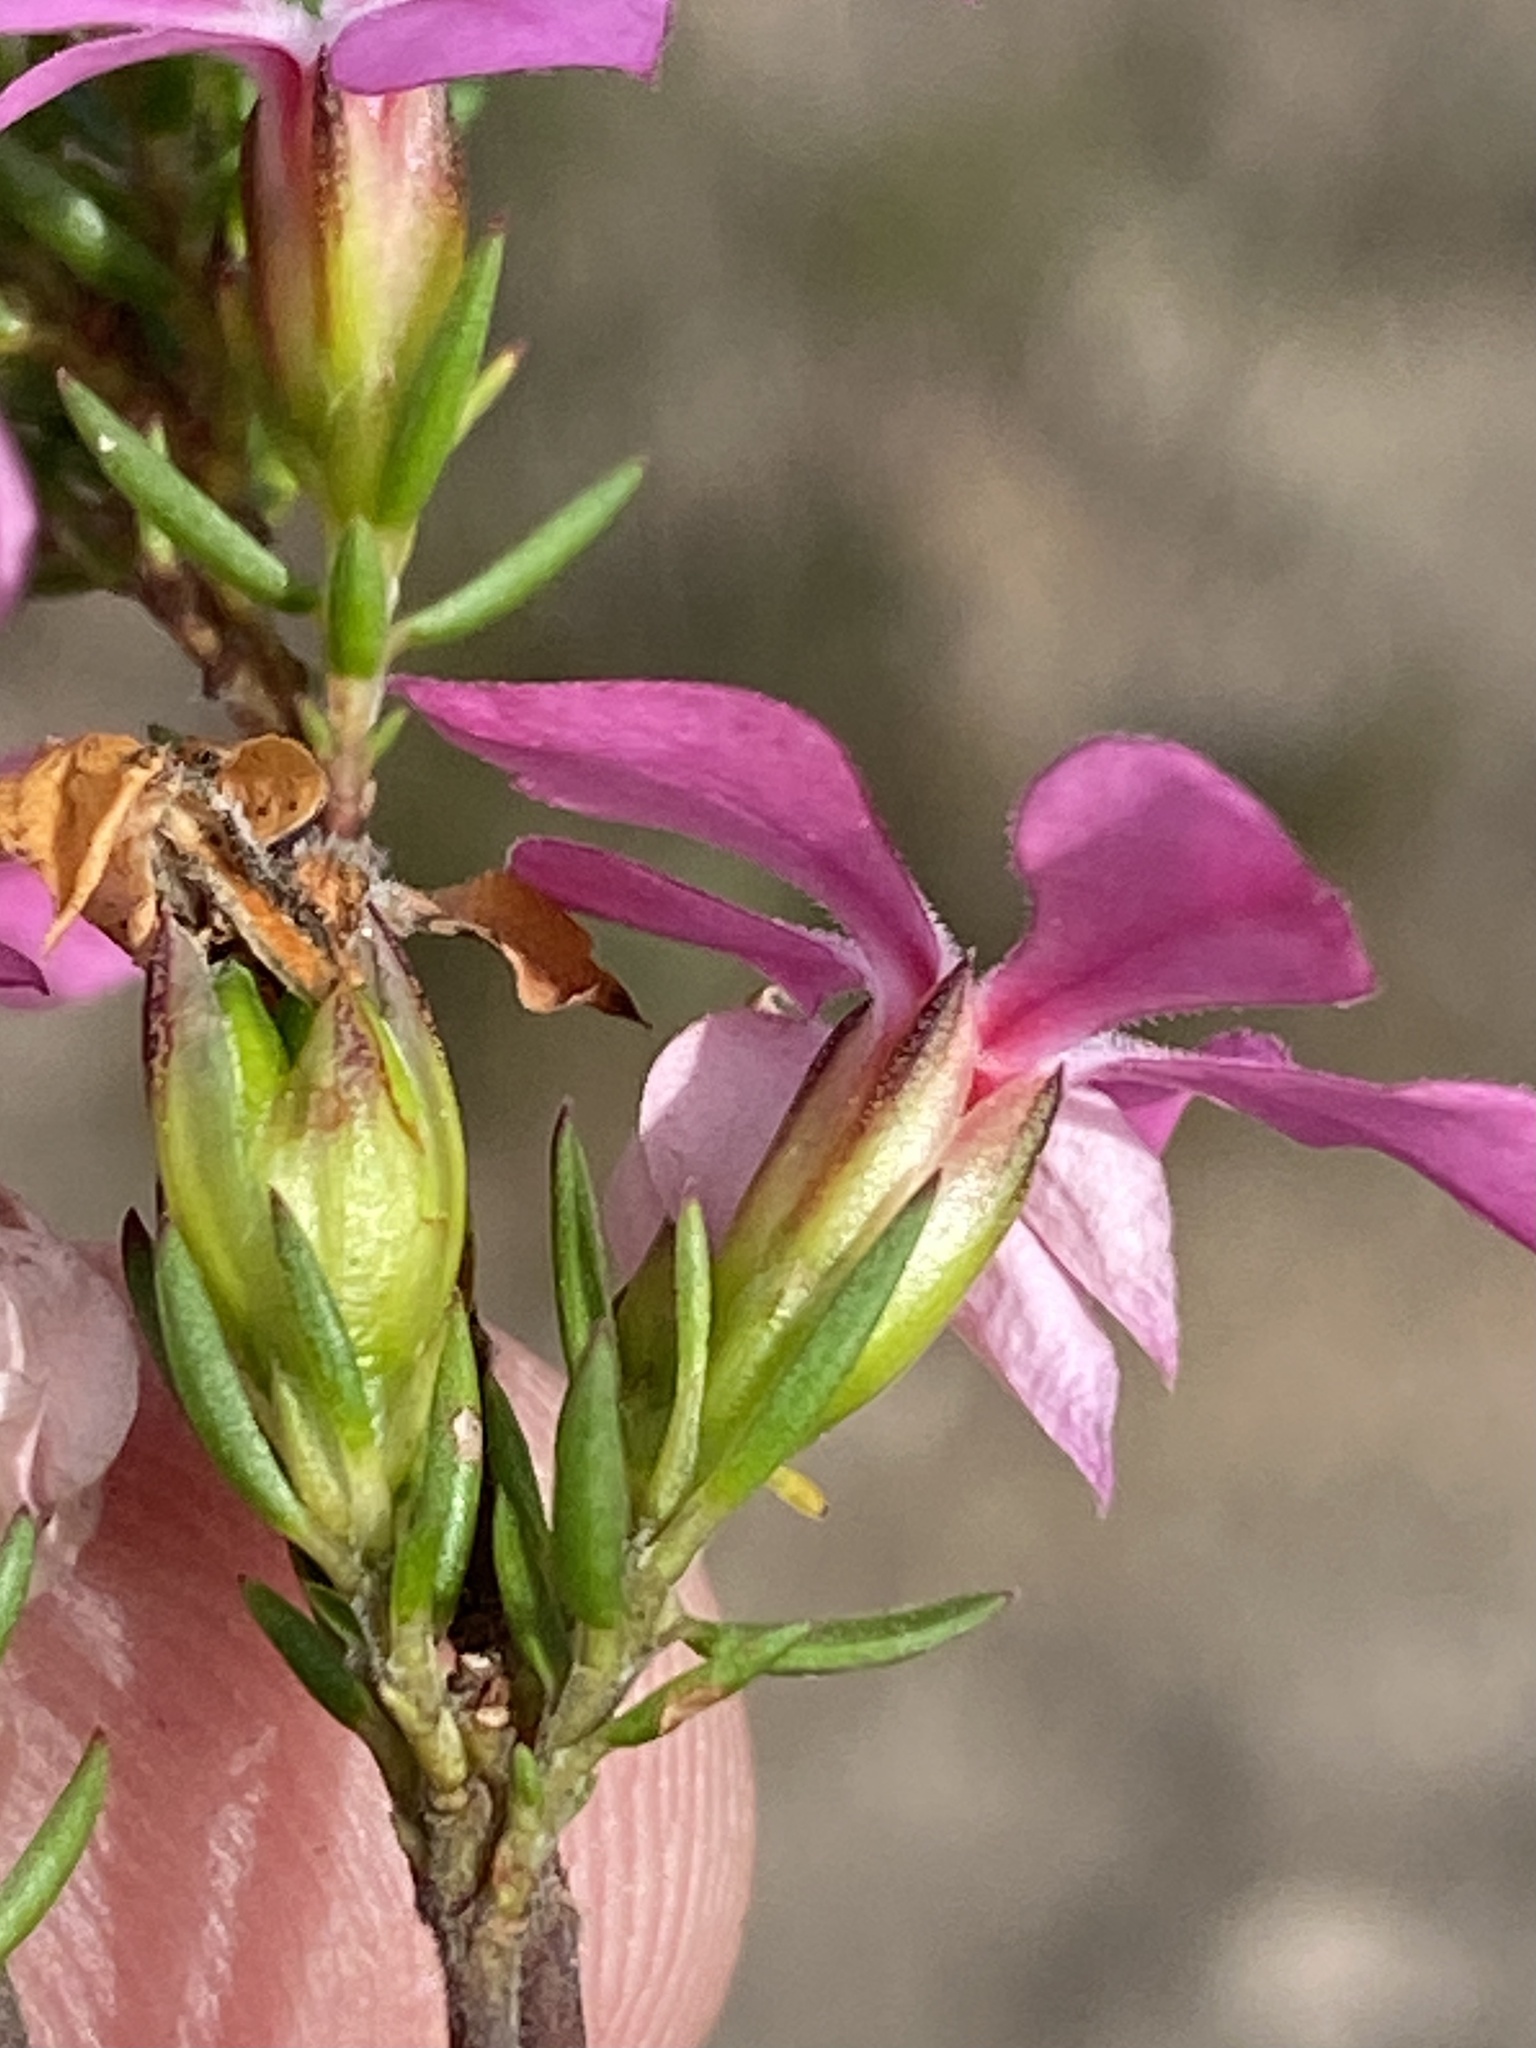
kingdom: Plantae
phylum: Tracheophyta
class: Magnoliopsida
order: Sapindales
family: Rutaceae
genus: Acmadenia
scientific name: Acmadenia obtusata
